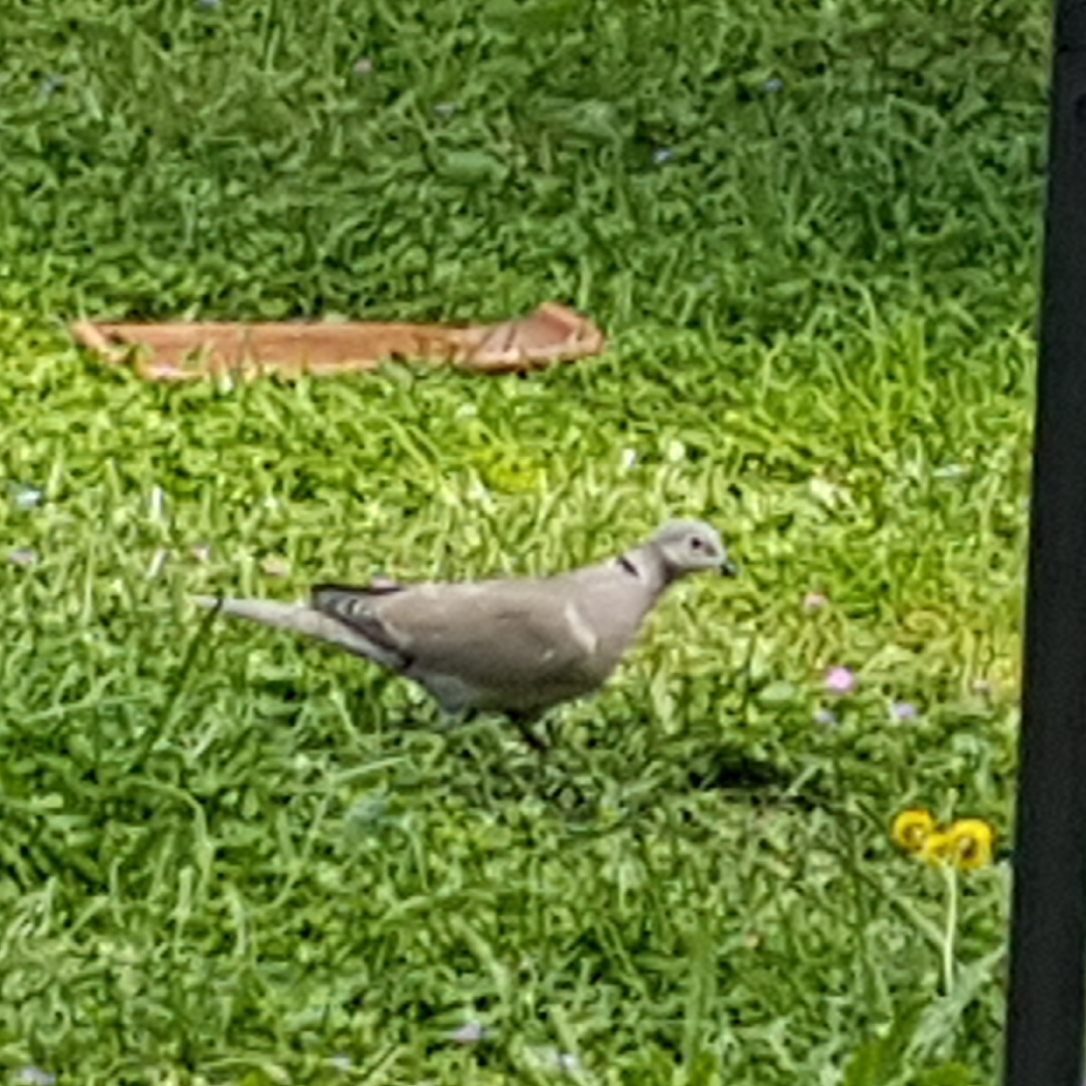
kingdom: Animalia
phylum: Chordata
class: Aves
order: Columbiformes
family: Columbidae
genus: Streptopelia
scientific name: Streptopelia decaocto
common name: Eurasian collared dove
